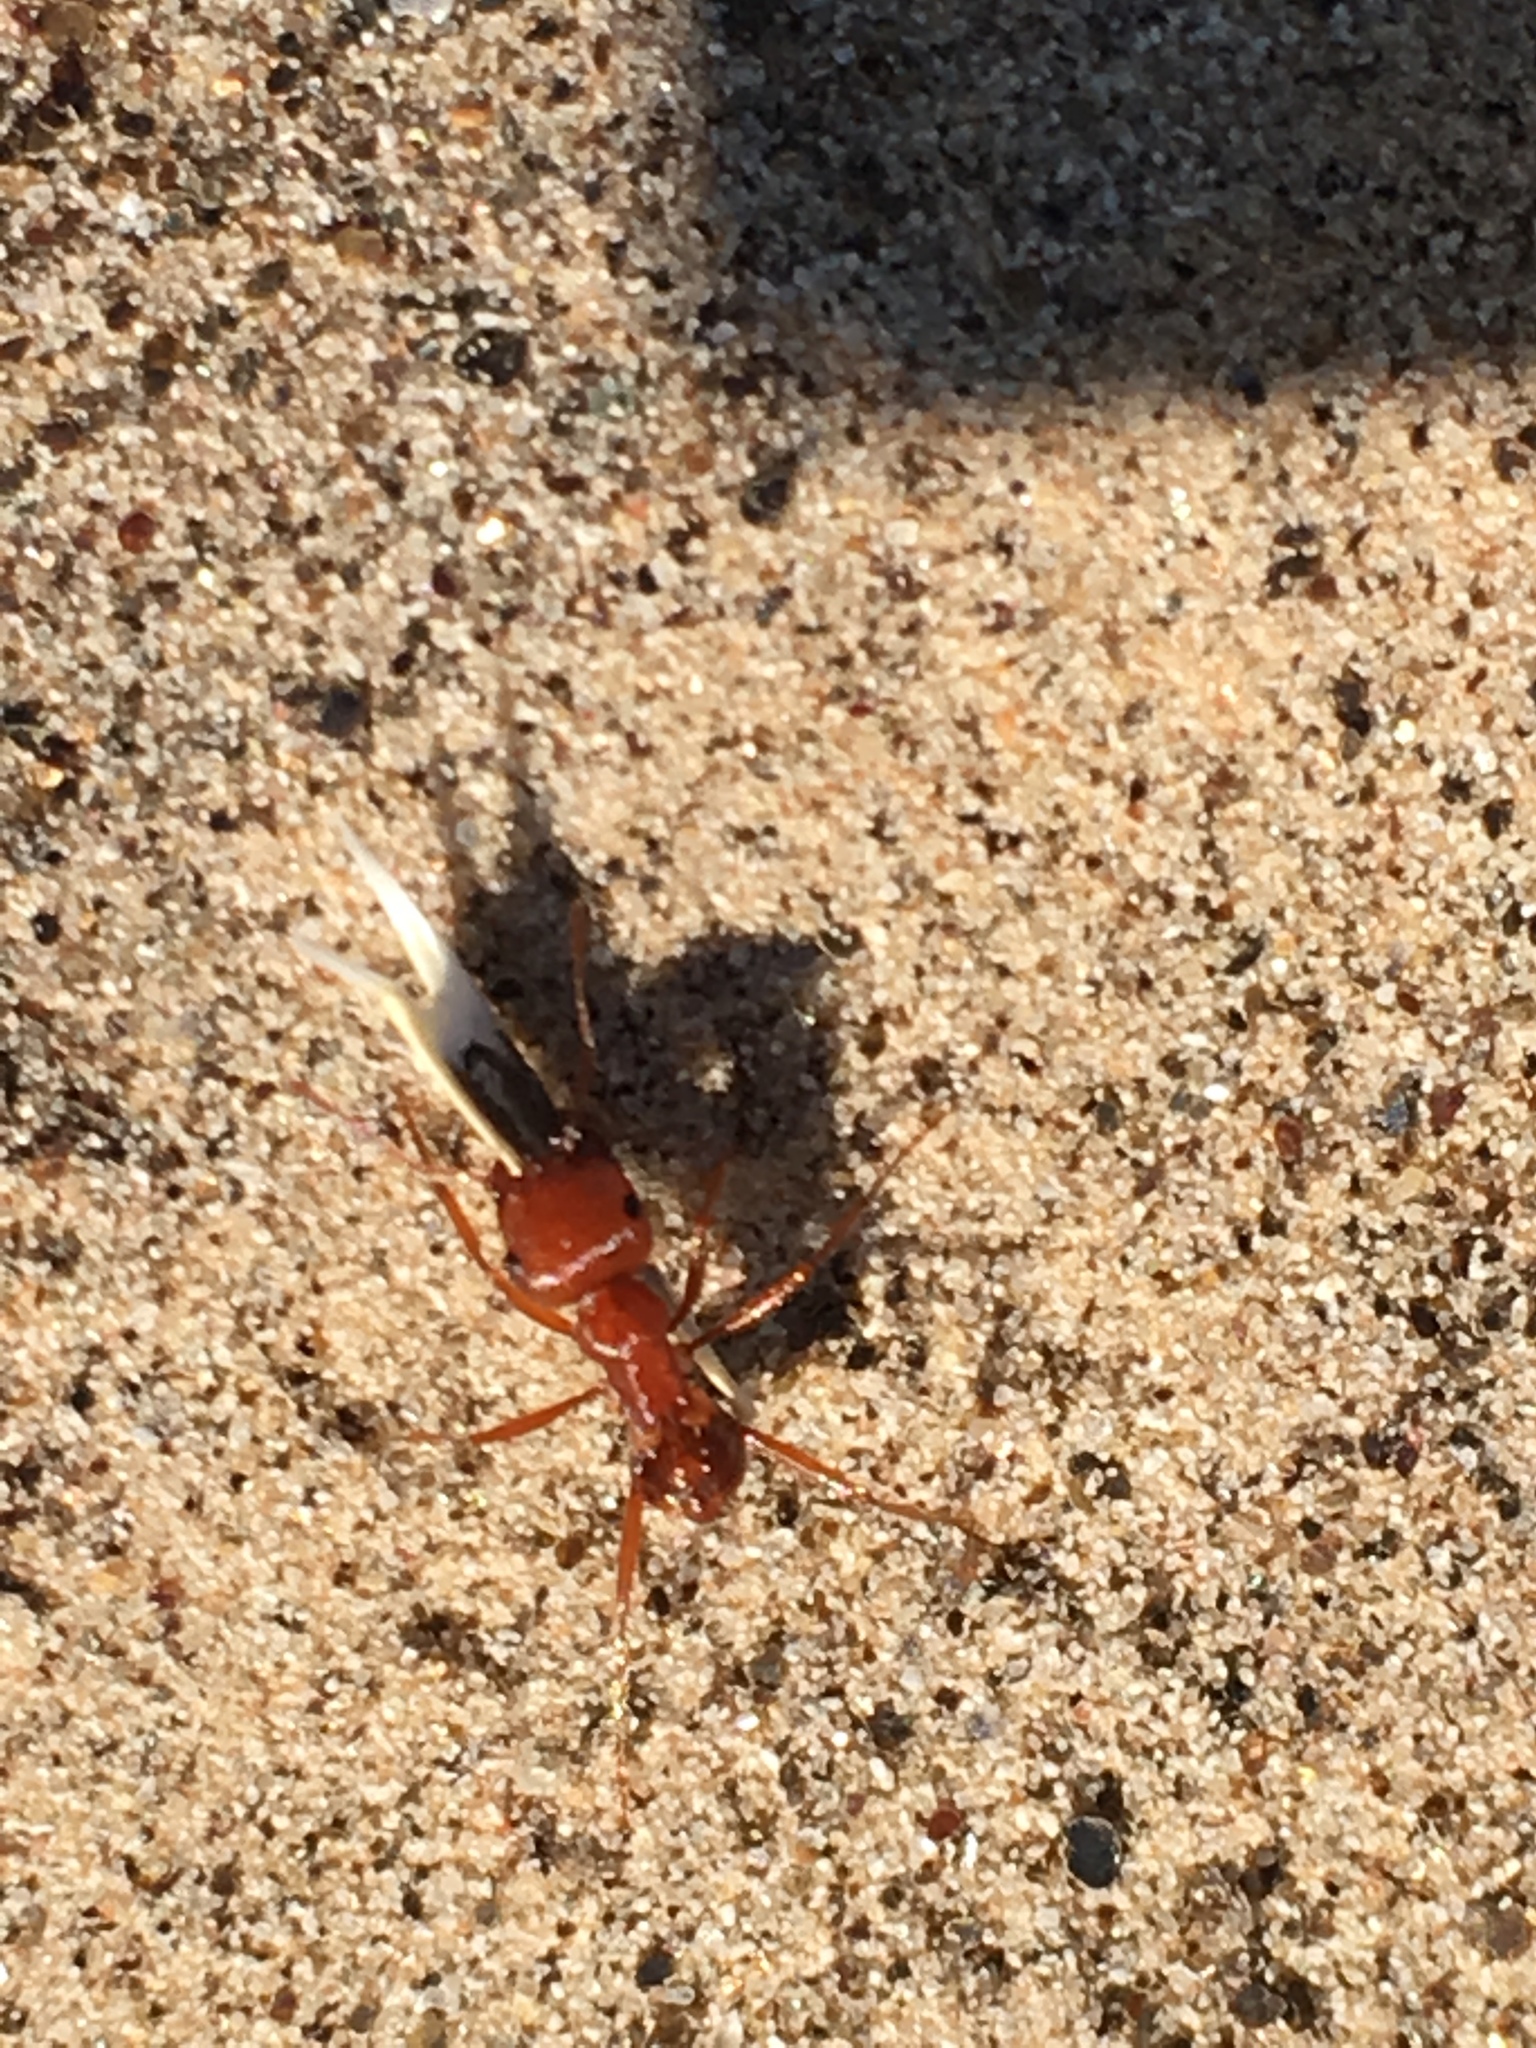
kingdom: Animalia
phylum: Arthropoda
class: Insecta
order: Hymenoptera
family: Formicidae
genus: Pogonomyrmex
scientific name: Pogonomyrmex californicus
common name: California harvester ant
